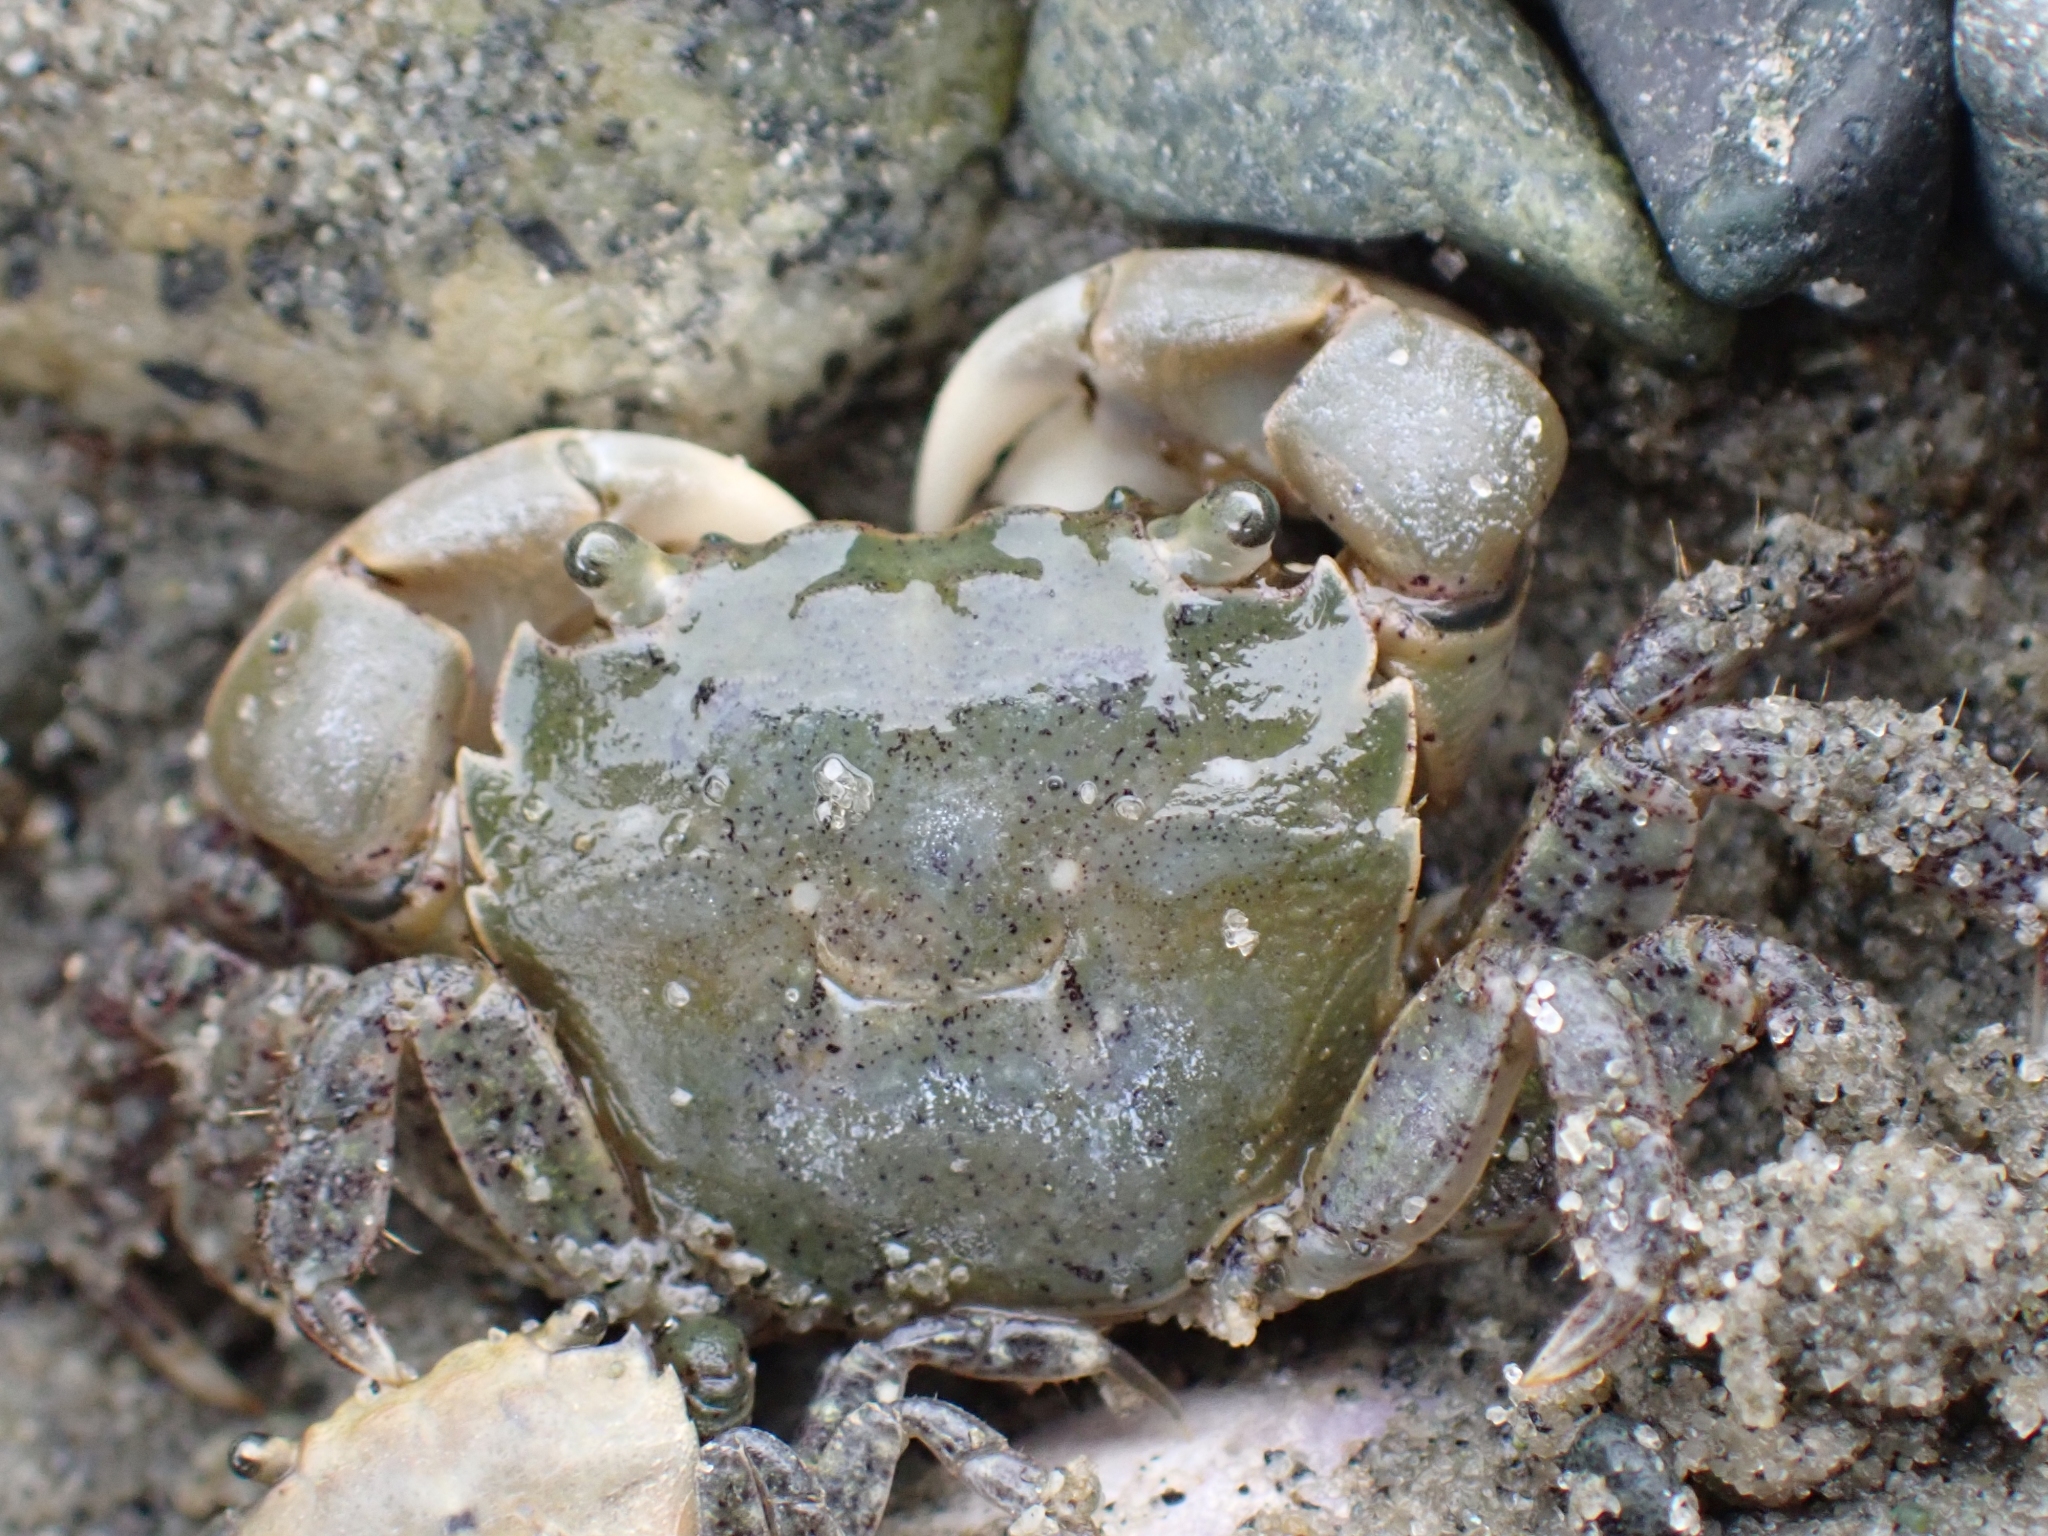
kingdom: Animalia
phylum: Arthropoda
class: Malacostraca
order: Decapoda
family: Varunidae
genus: Hemigrapsus
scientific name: Hemigrapsus oregonensis
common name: Yellow shore crab
